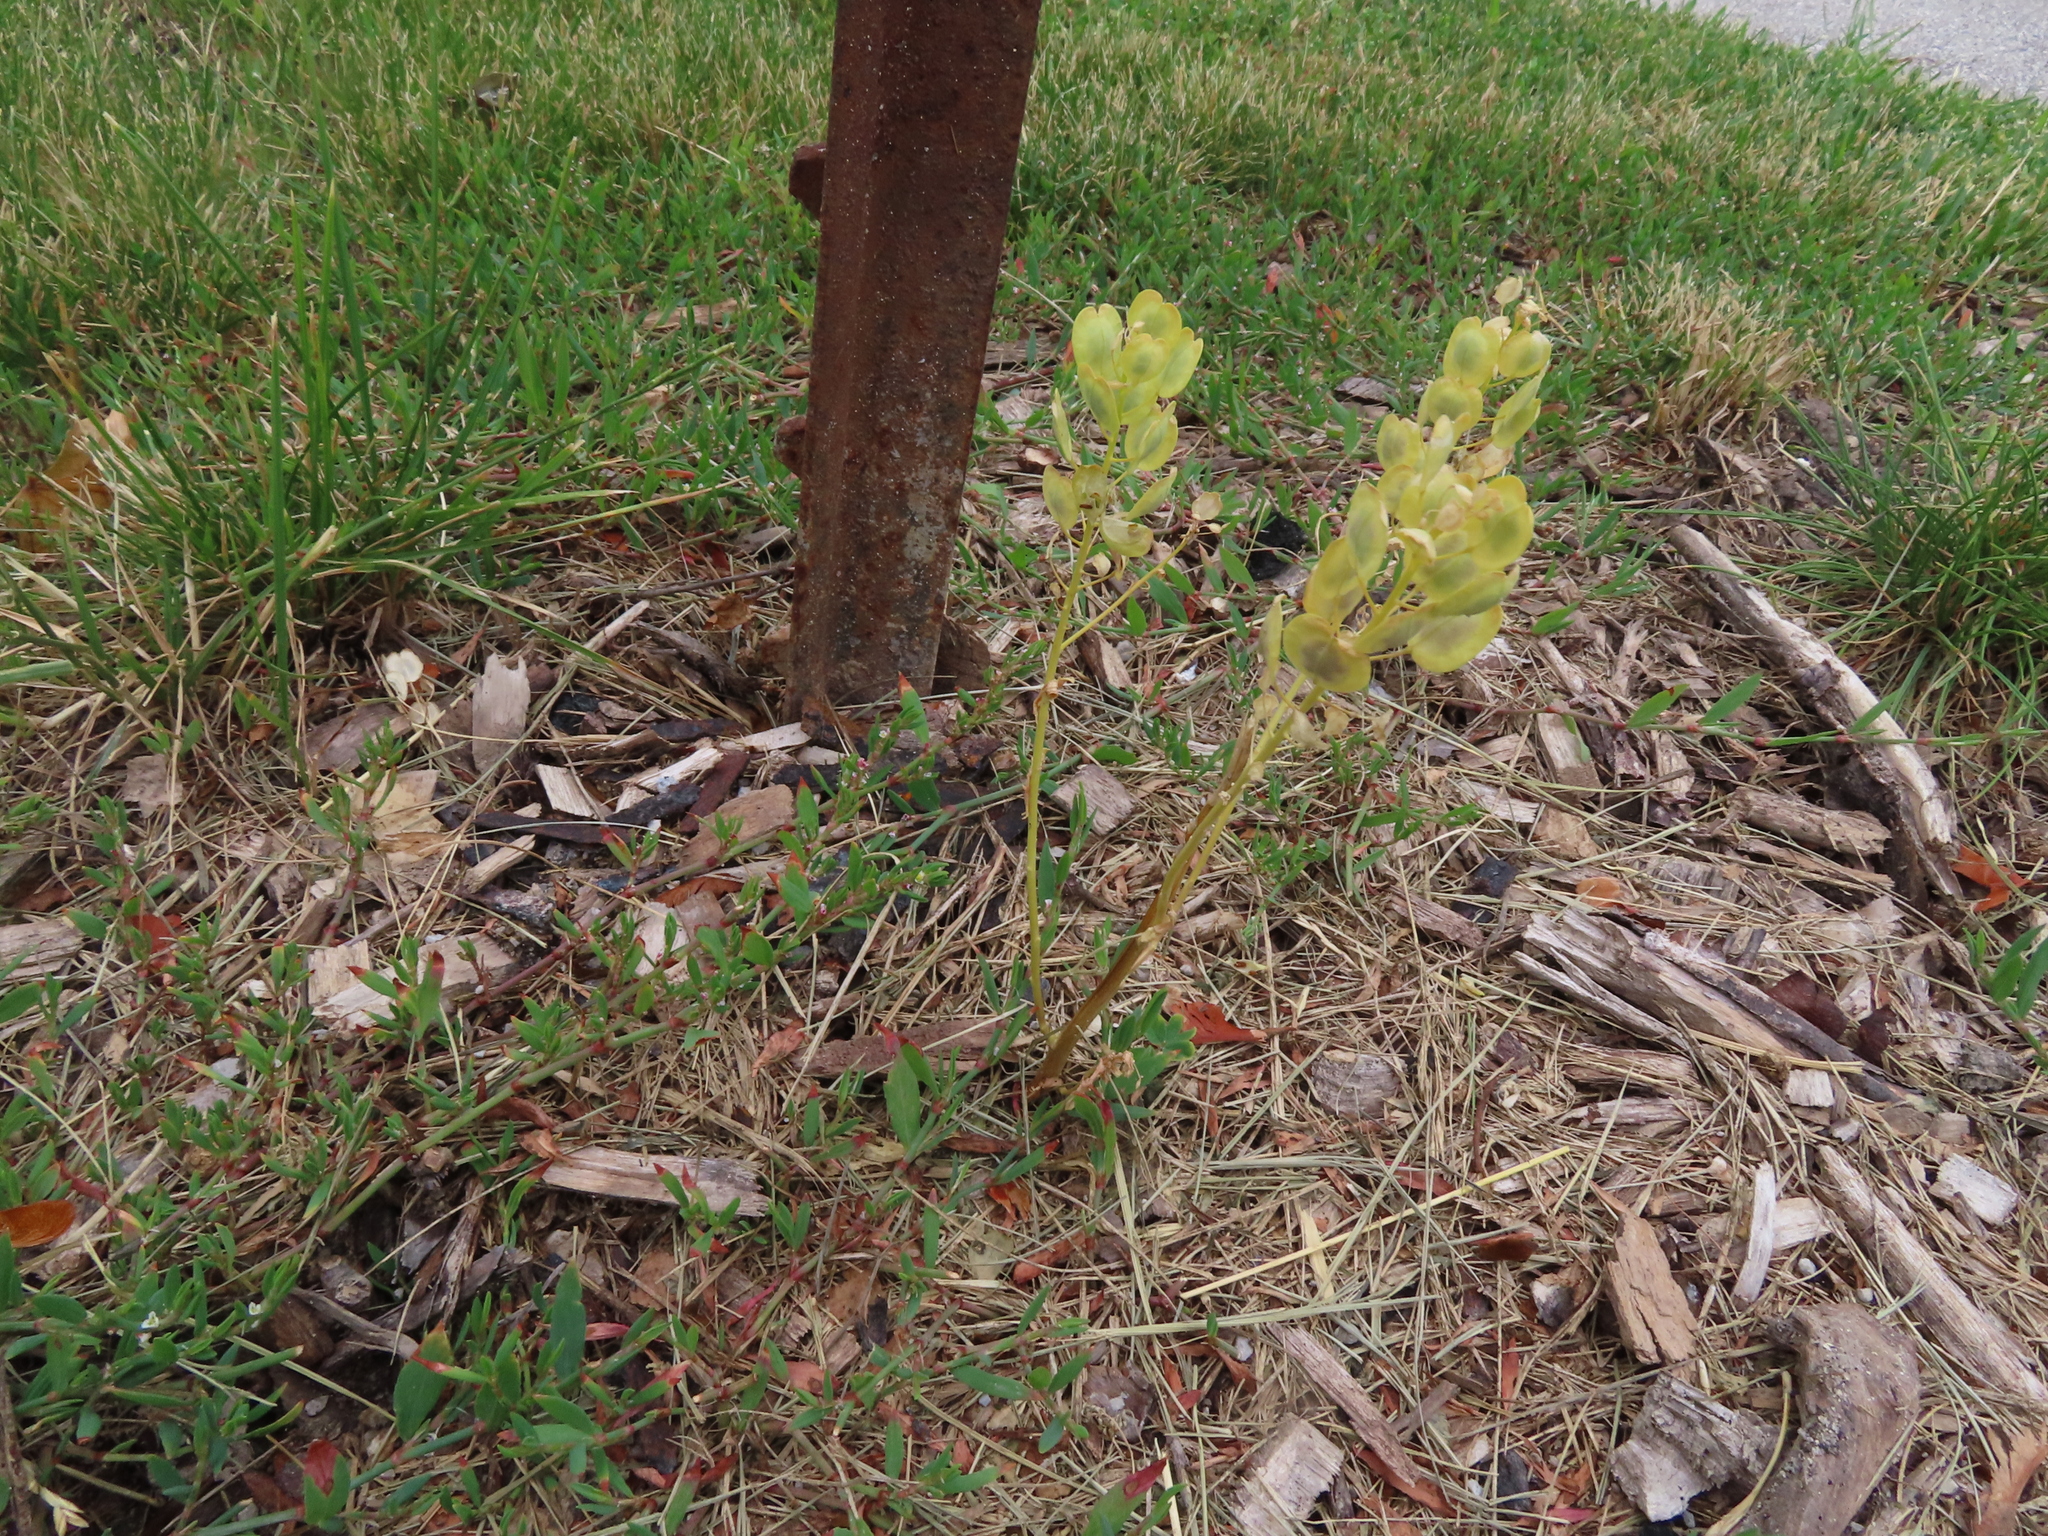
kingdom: Plantae
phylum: Tracheophyta
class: Magnoliopsida
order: Brassicales
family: Brassicaceae
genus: Thlaspi
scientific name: Thlaspi arvense
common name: Field pennycress
